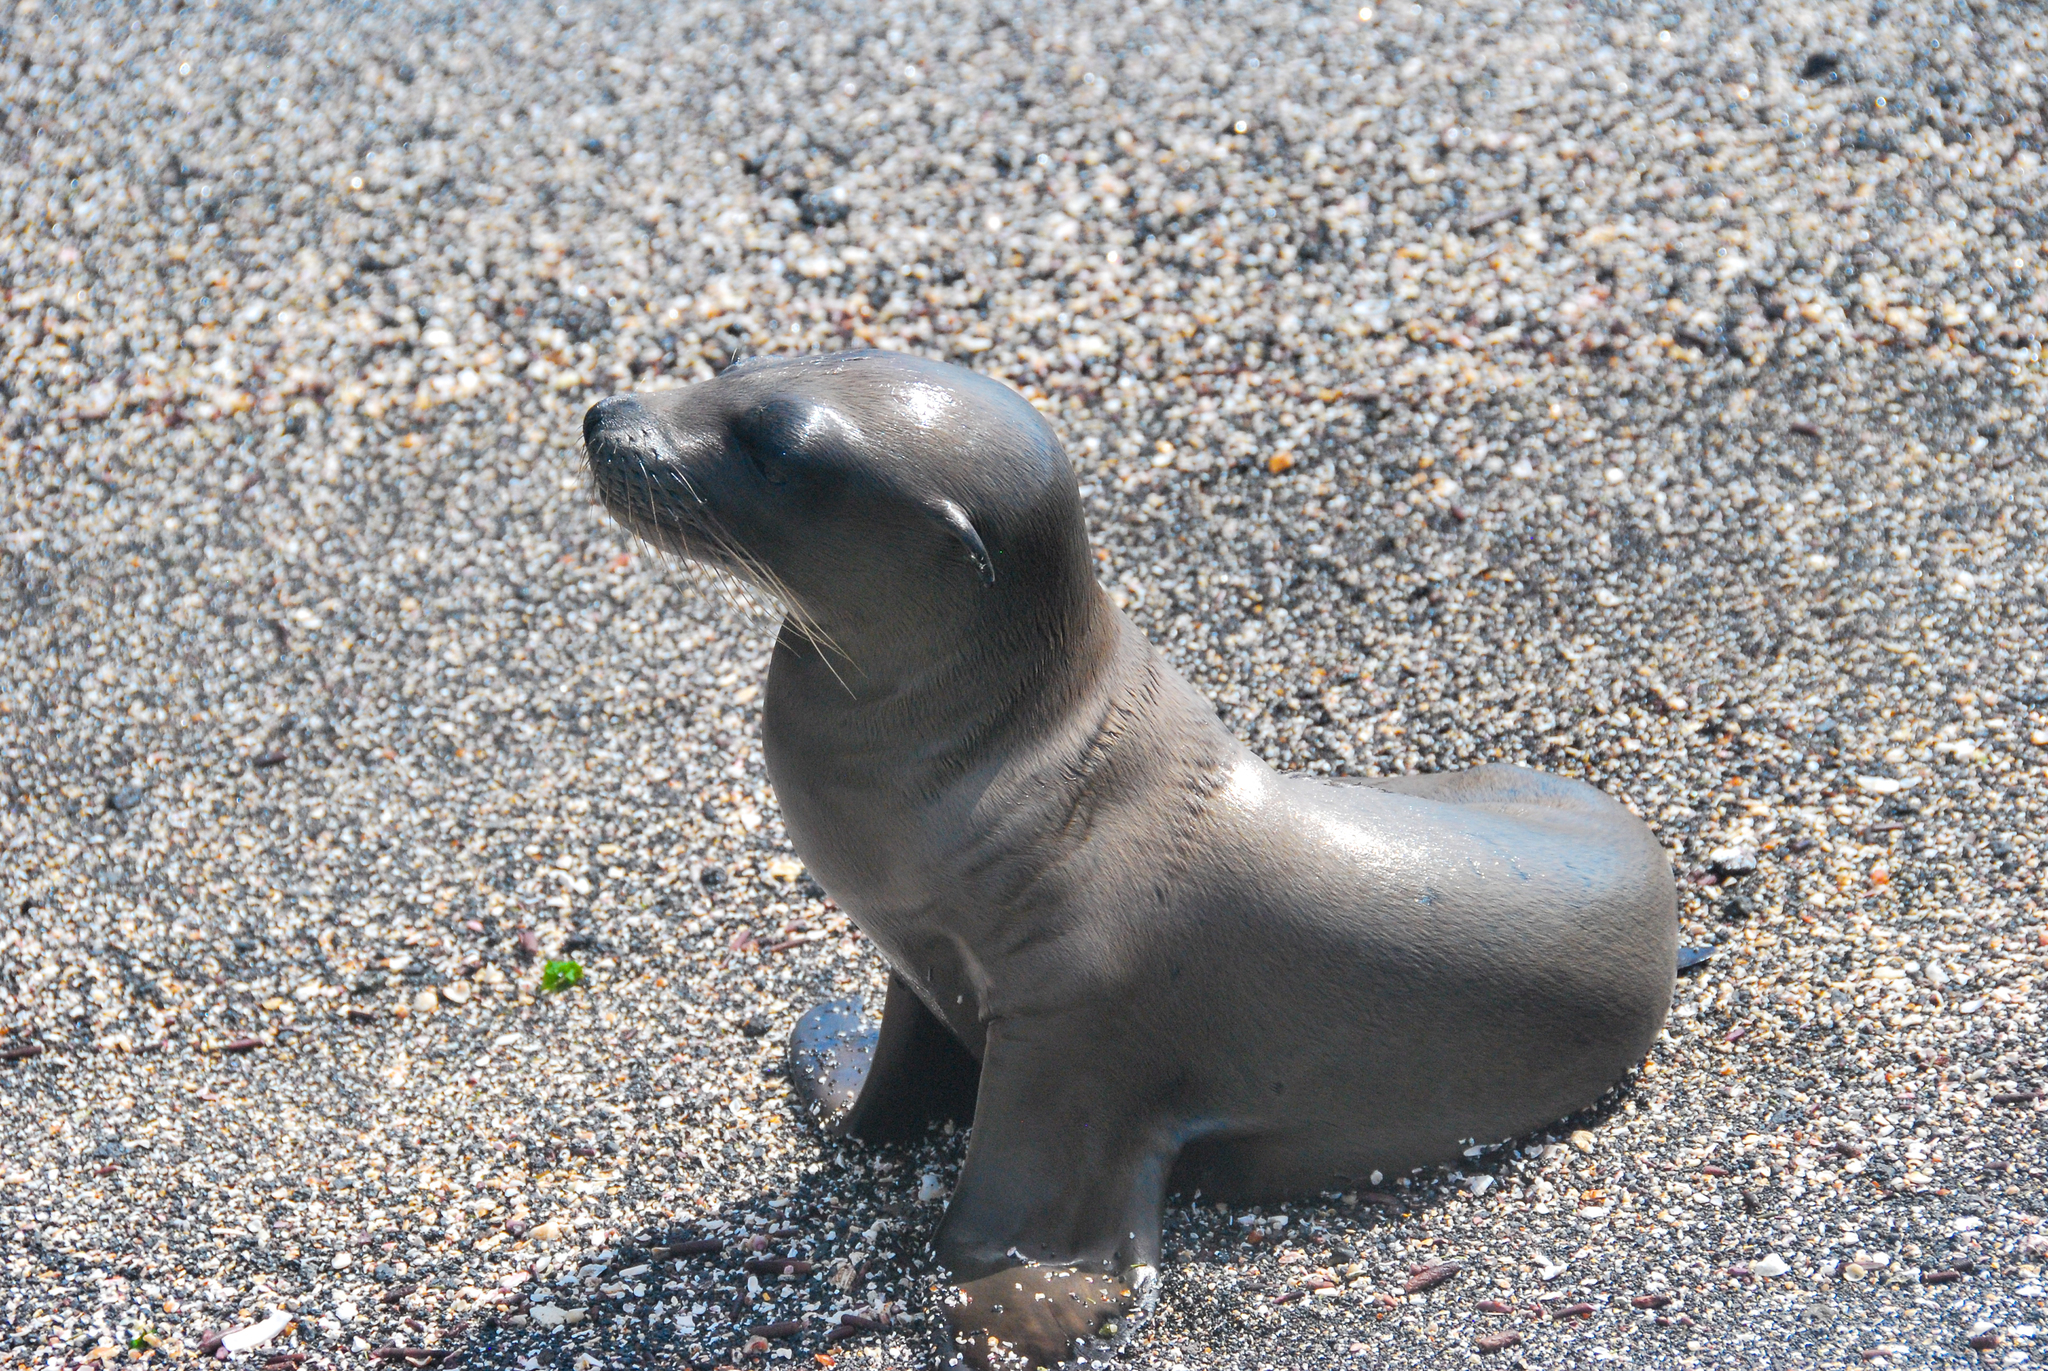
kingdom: Animalia
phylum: Chordata
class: Mammalia
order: Carnivora
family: Otariidae
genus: Zalophus
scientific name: Zalophus wollebaeki
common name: Galapagos sea lion
